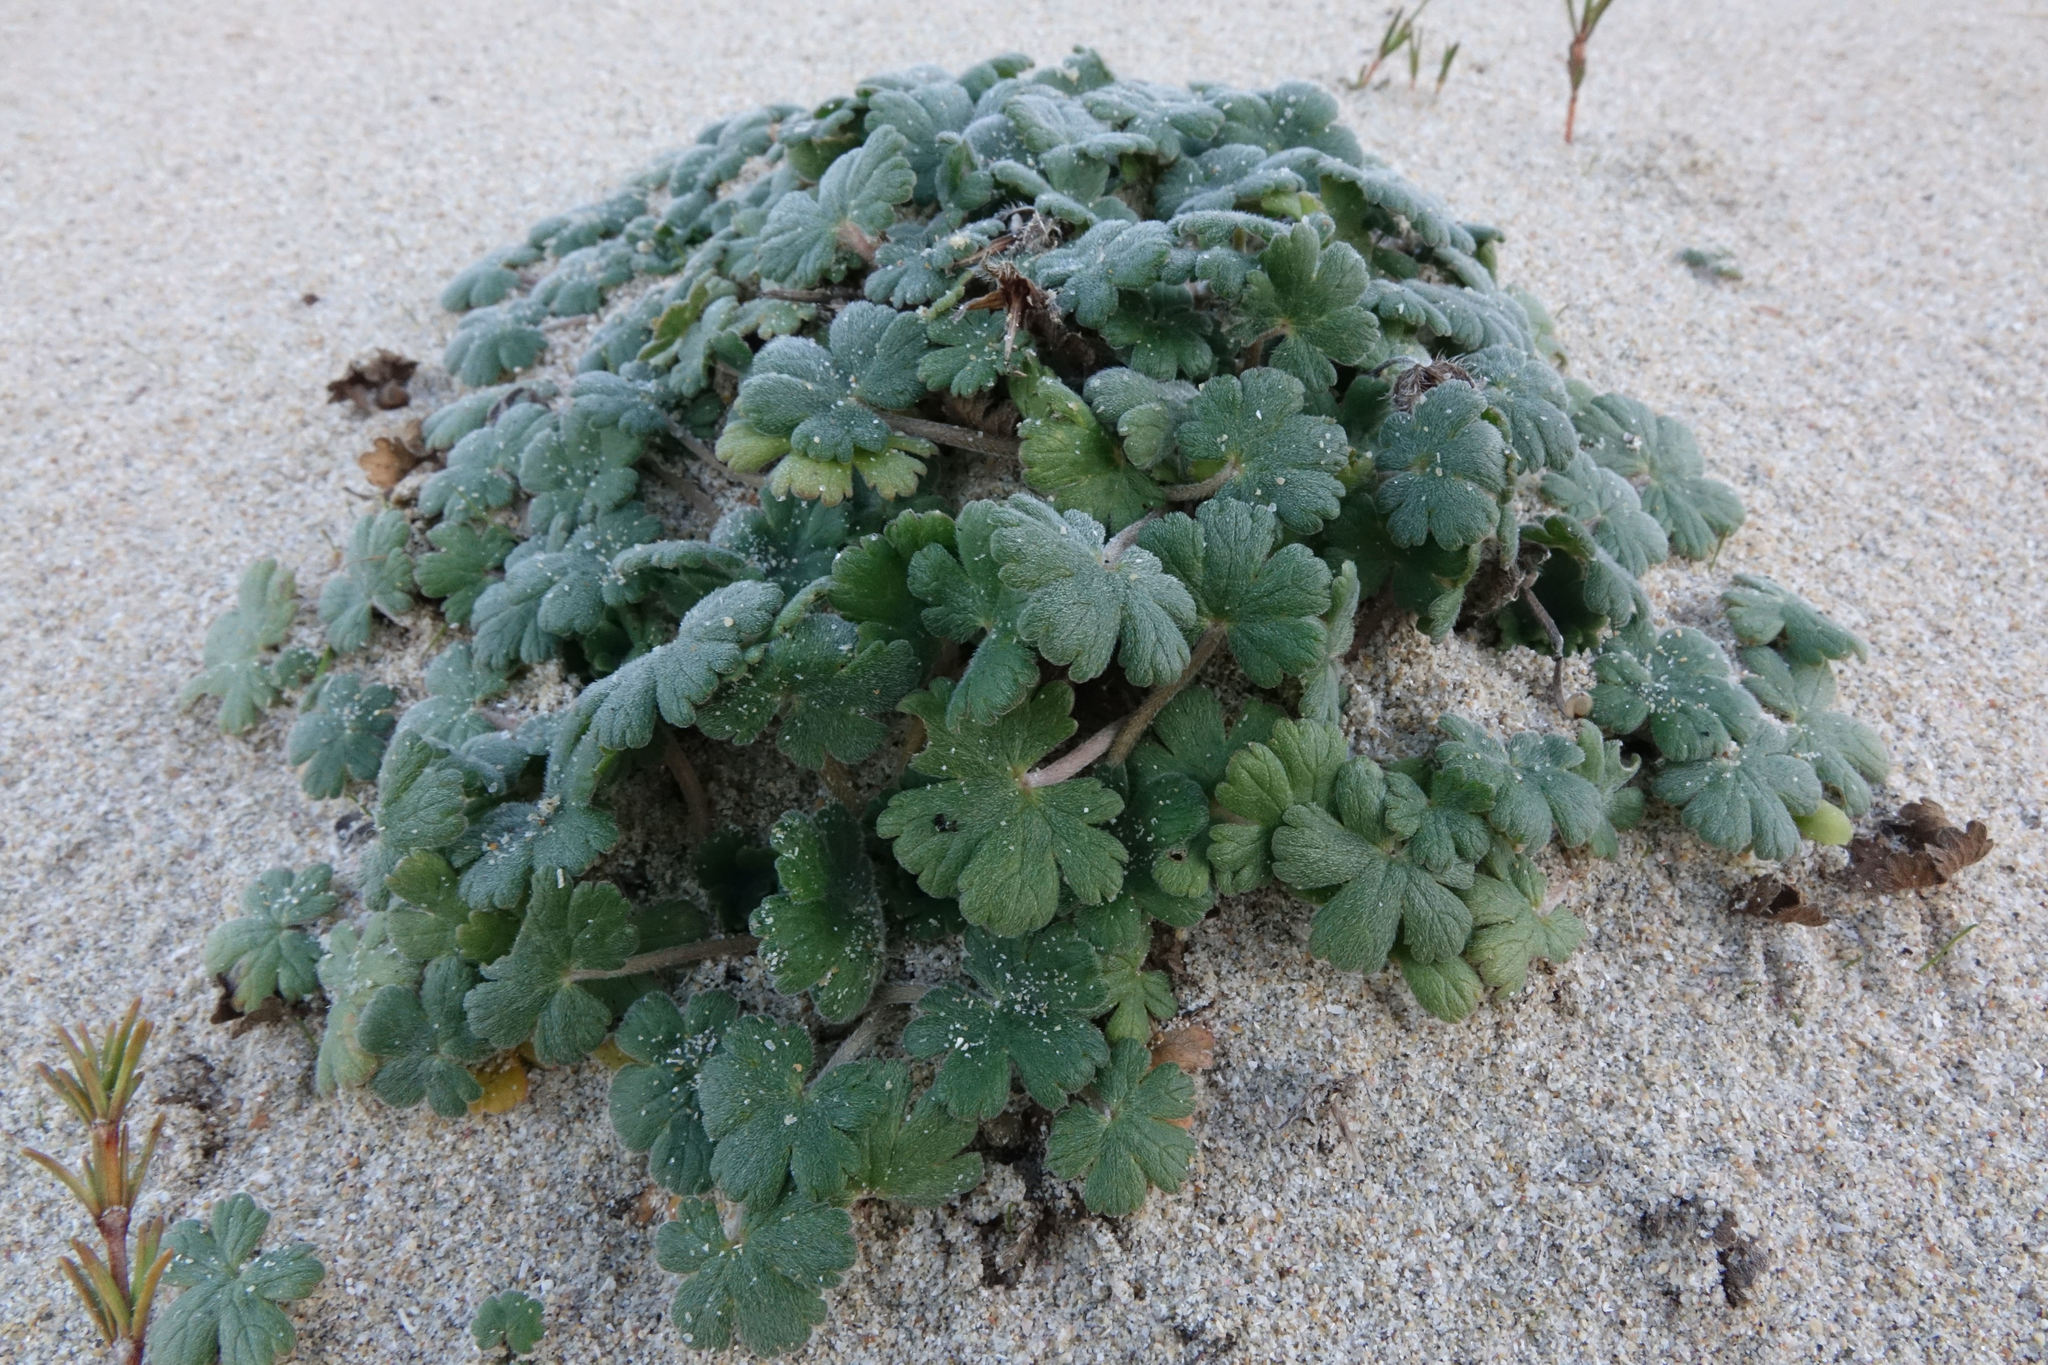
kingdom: Plantae
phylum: Tracheophyta
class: Magnoliopsida
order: Geraniales
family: Geraniaceae
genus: Geranium
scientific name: Geranium brevicaule
